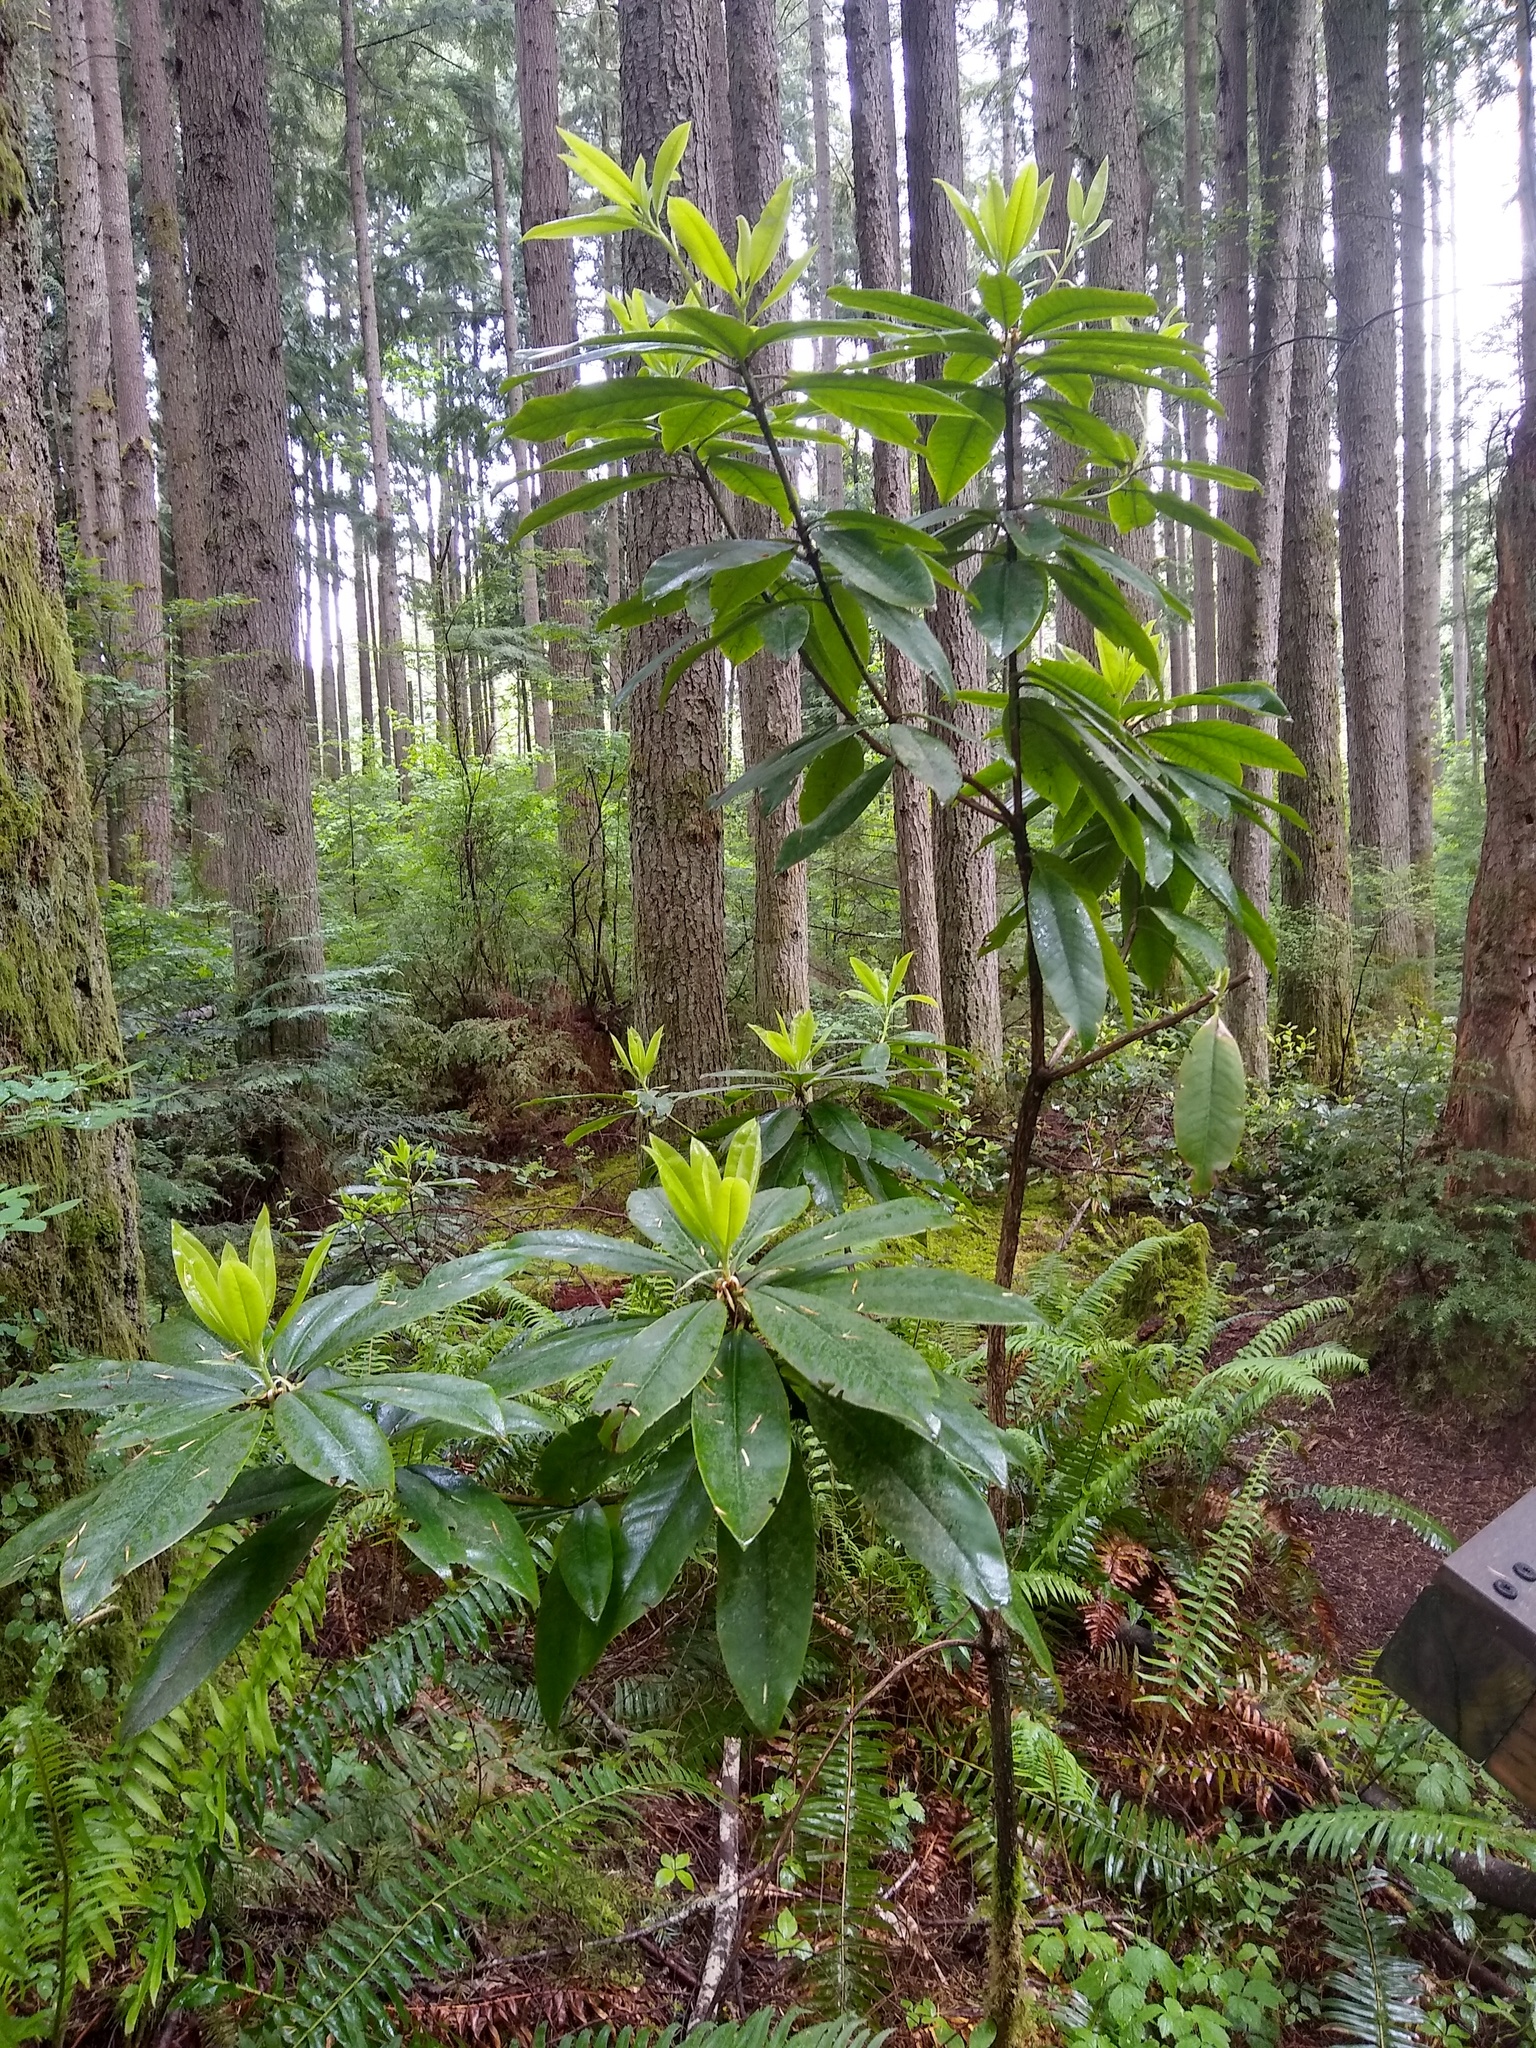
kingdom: Plantae
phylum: Tracheophyta
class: Magnoliopsida
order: Ericales
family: Ericaceae
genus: Rhododendron
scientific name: Rhododendron macrophyllum
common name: California rose bay
